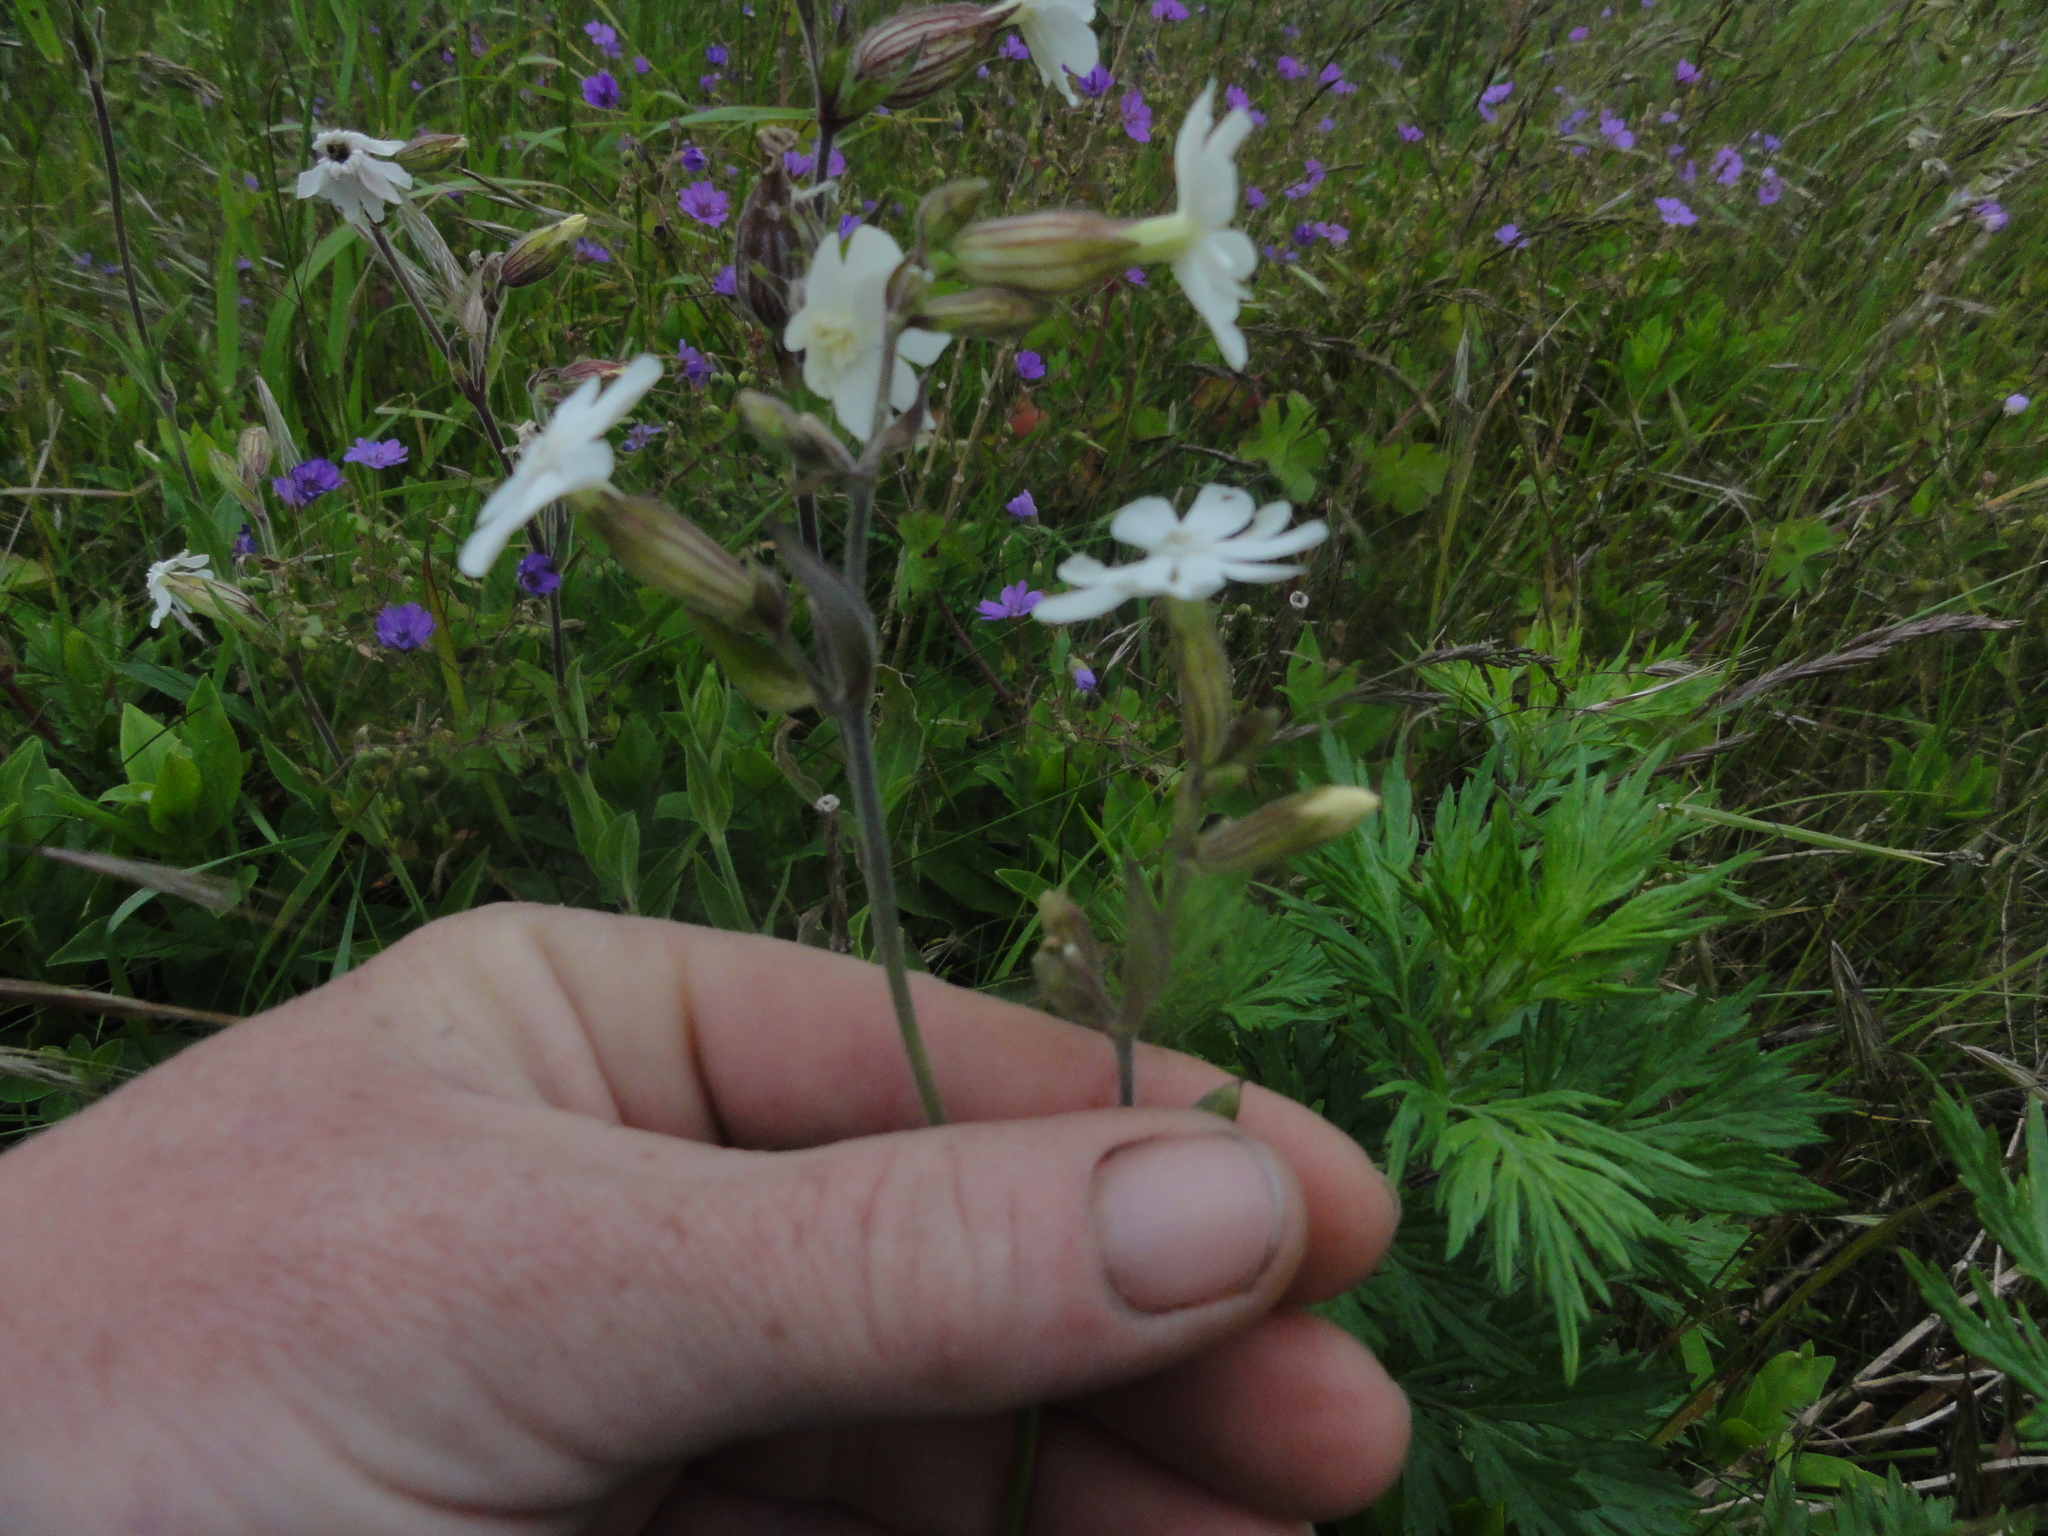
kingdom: Plantae
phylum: Tracheophyta
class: Magnoliopsida
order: Caryophyllales
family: Caryophyllaceae
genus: Silene
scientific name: Silene latifolia
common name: White campion
